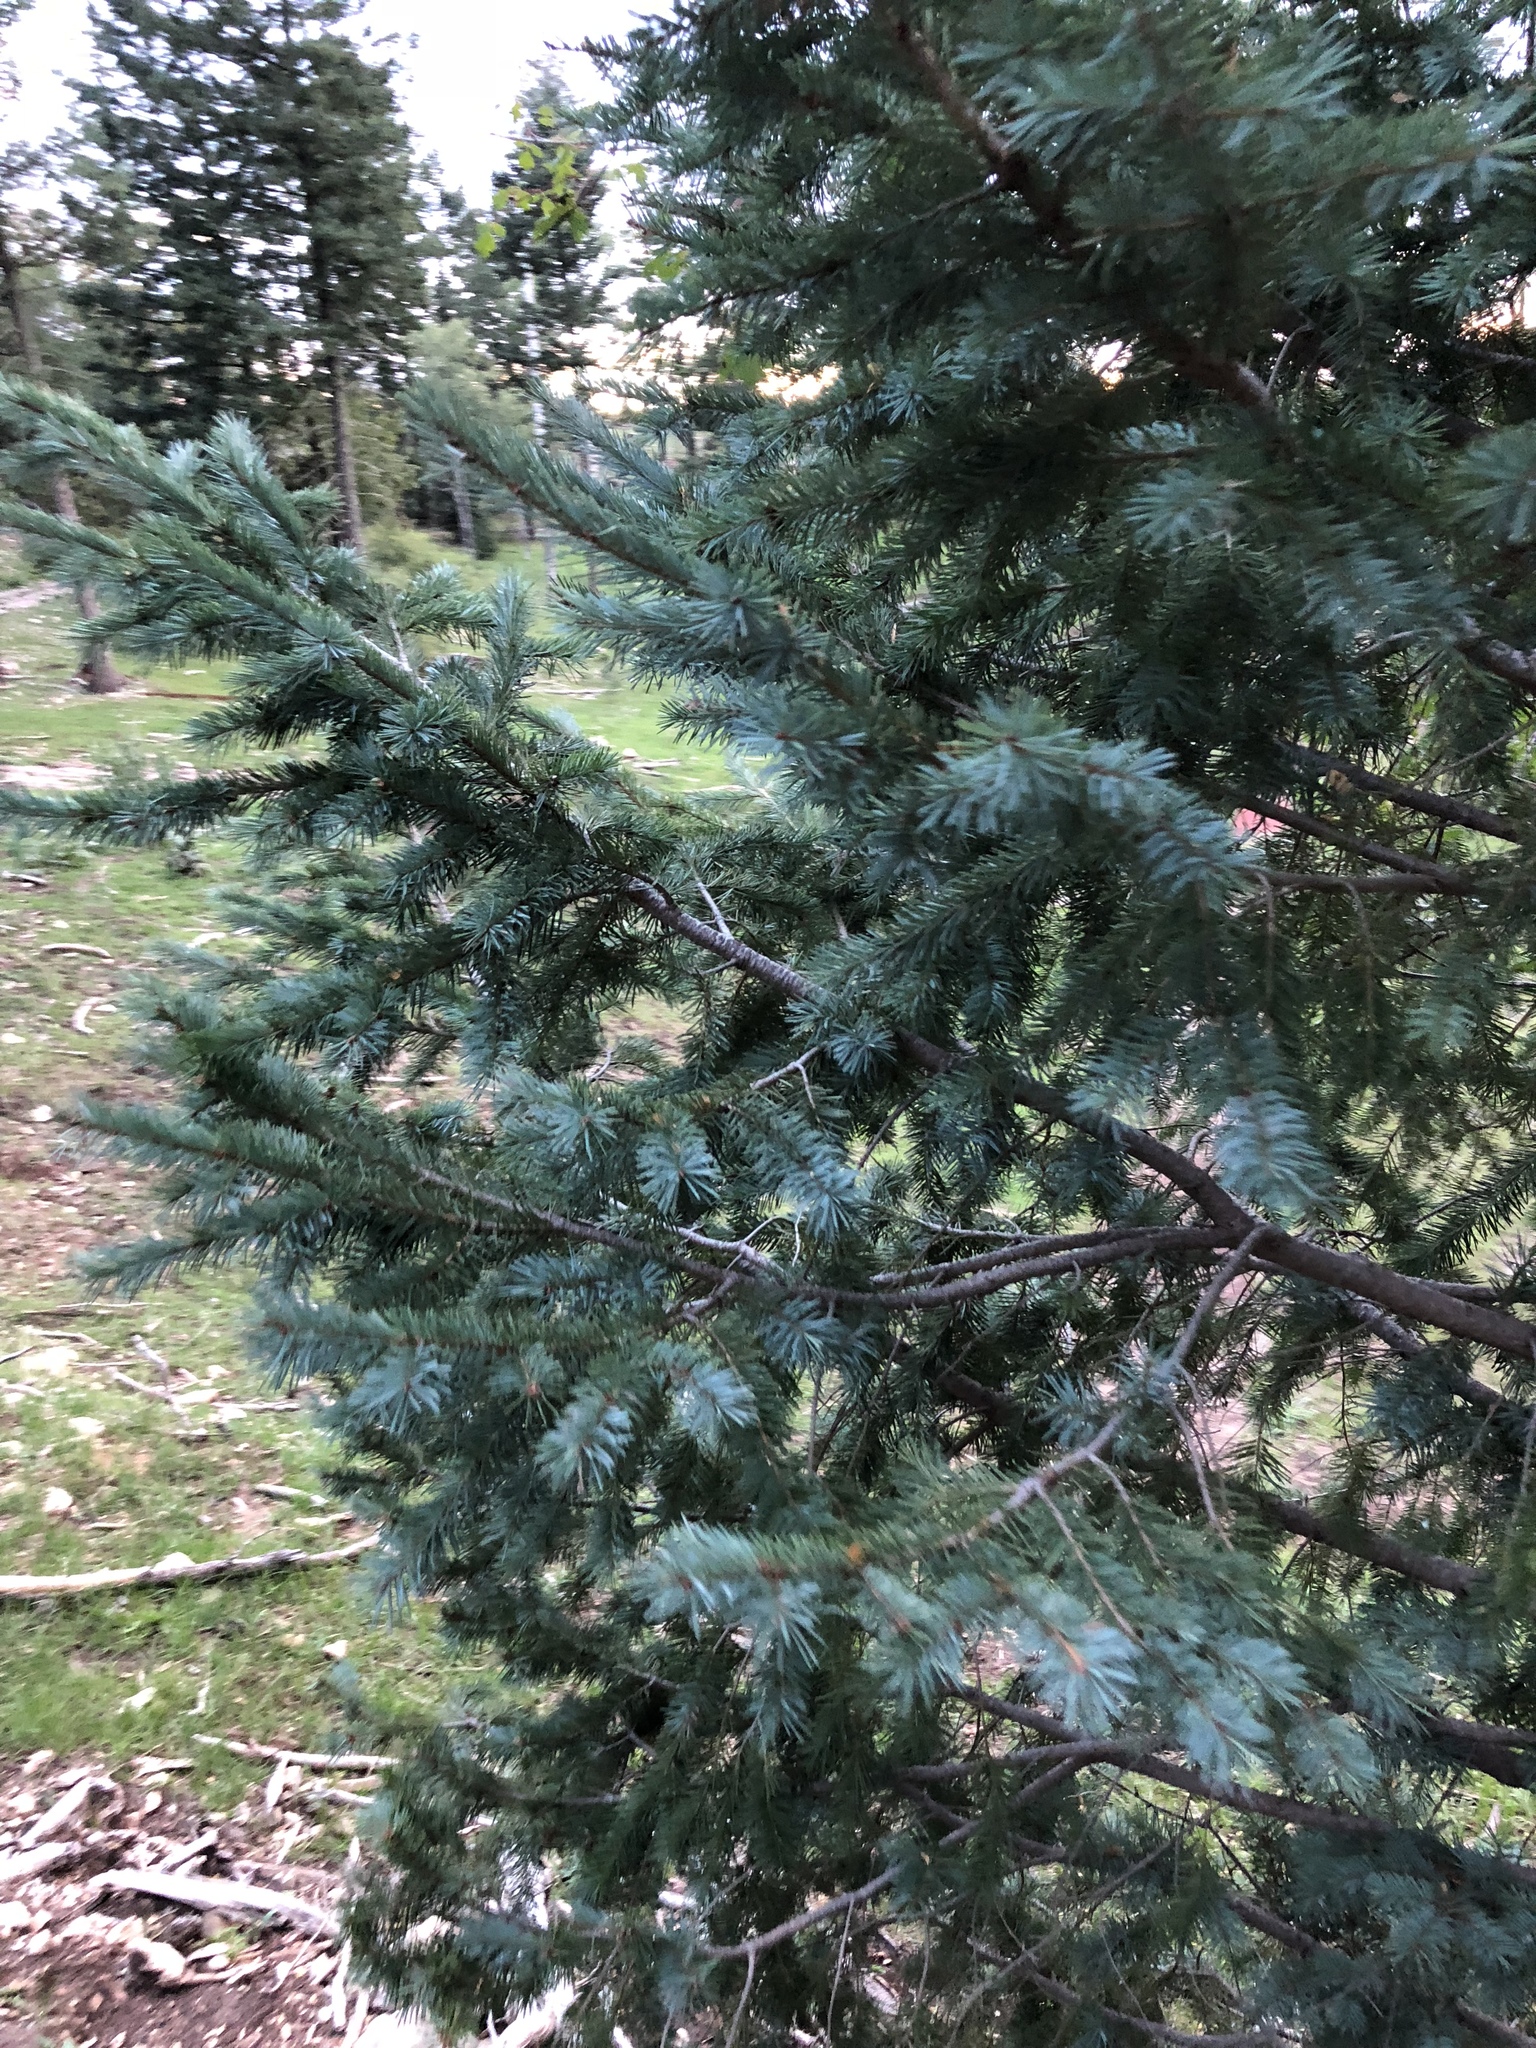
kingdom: Plantae
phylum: Tracheophyta
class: Pinopsida
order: Pinales
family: Pinaceae
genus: Pseudotsuga
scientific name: Pseudotsuga menziesii
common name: Douglas fir
